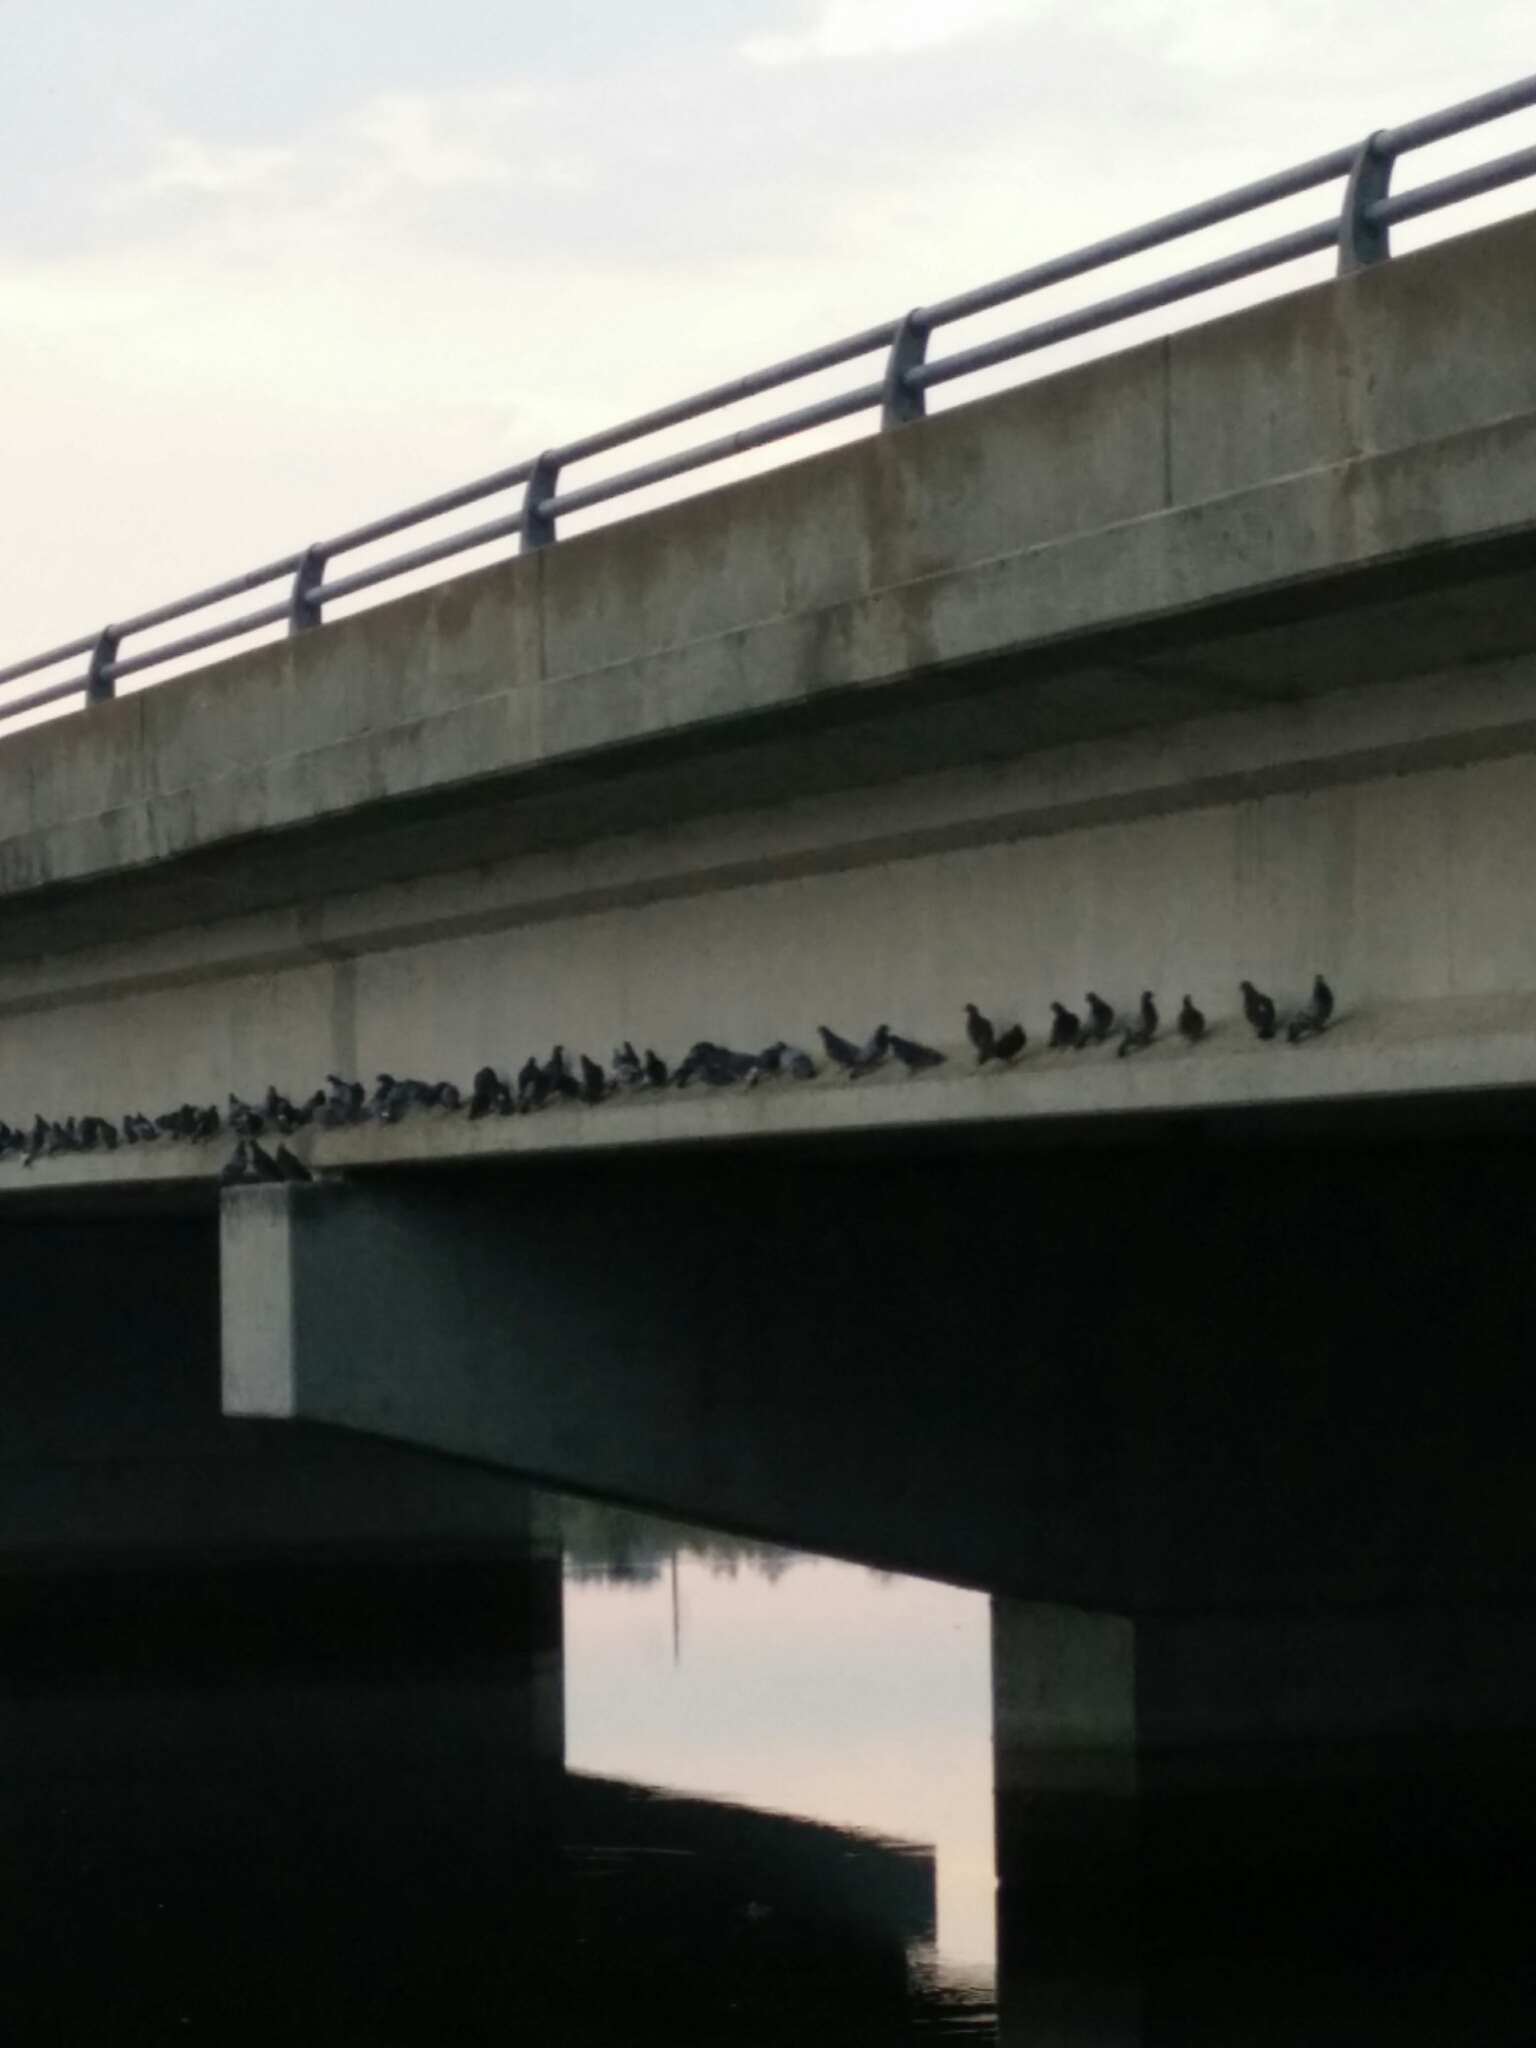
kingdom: Animalia
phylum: Chordata
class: Aves
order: Columbiformes
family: Columbidae
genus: Columba
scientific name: Columba livia
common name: Rock pigeon
